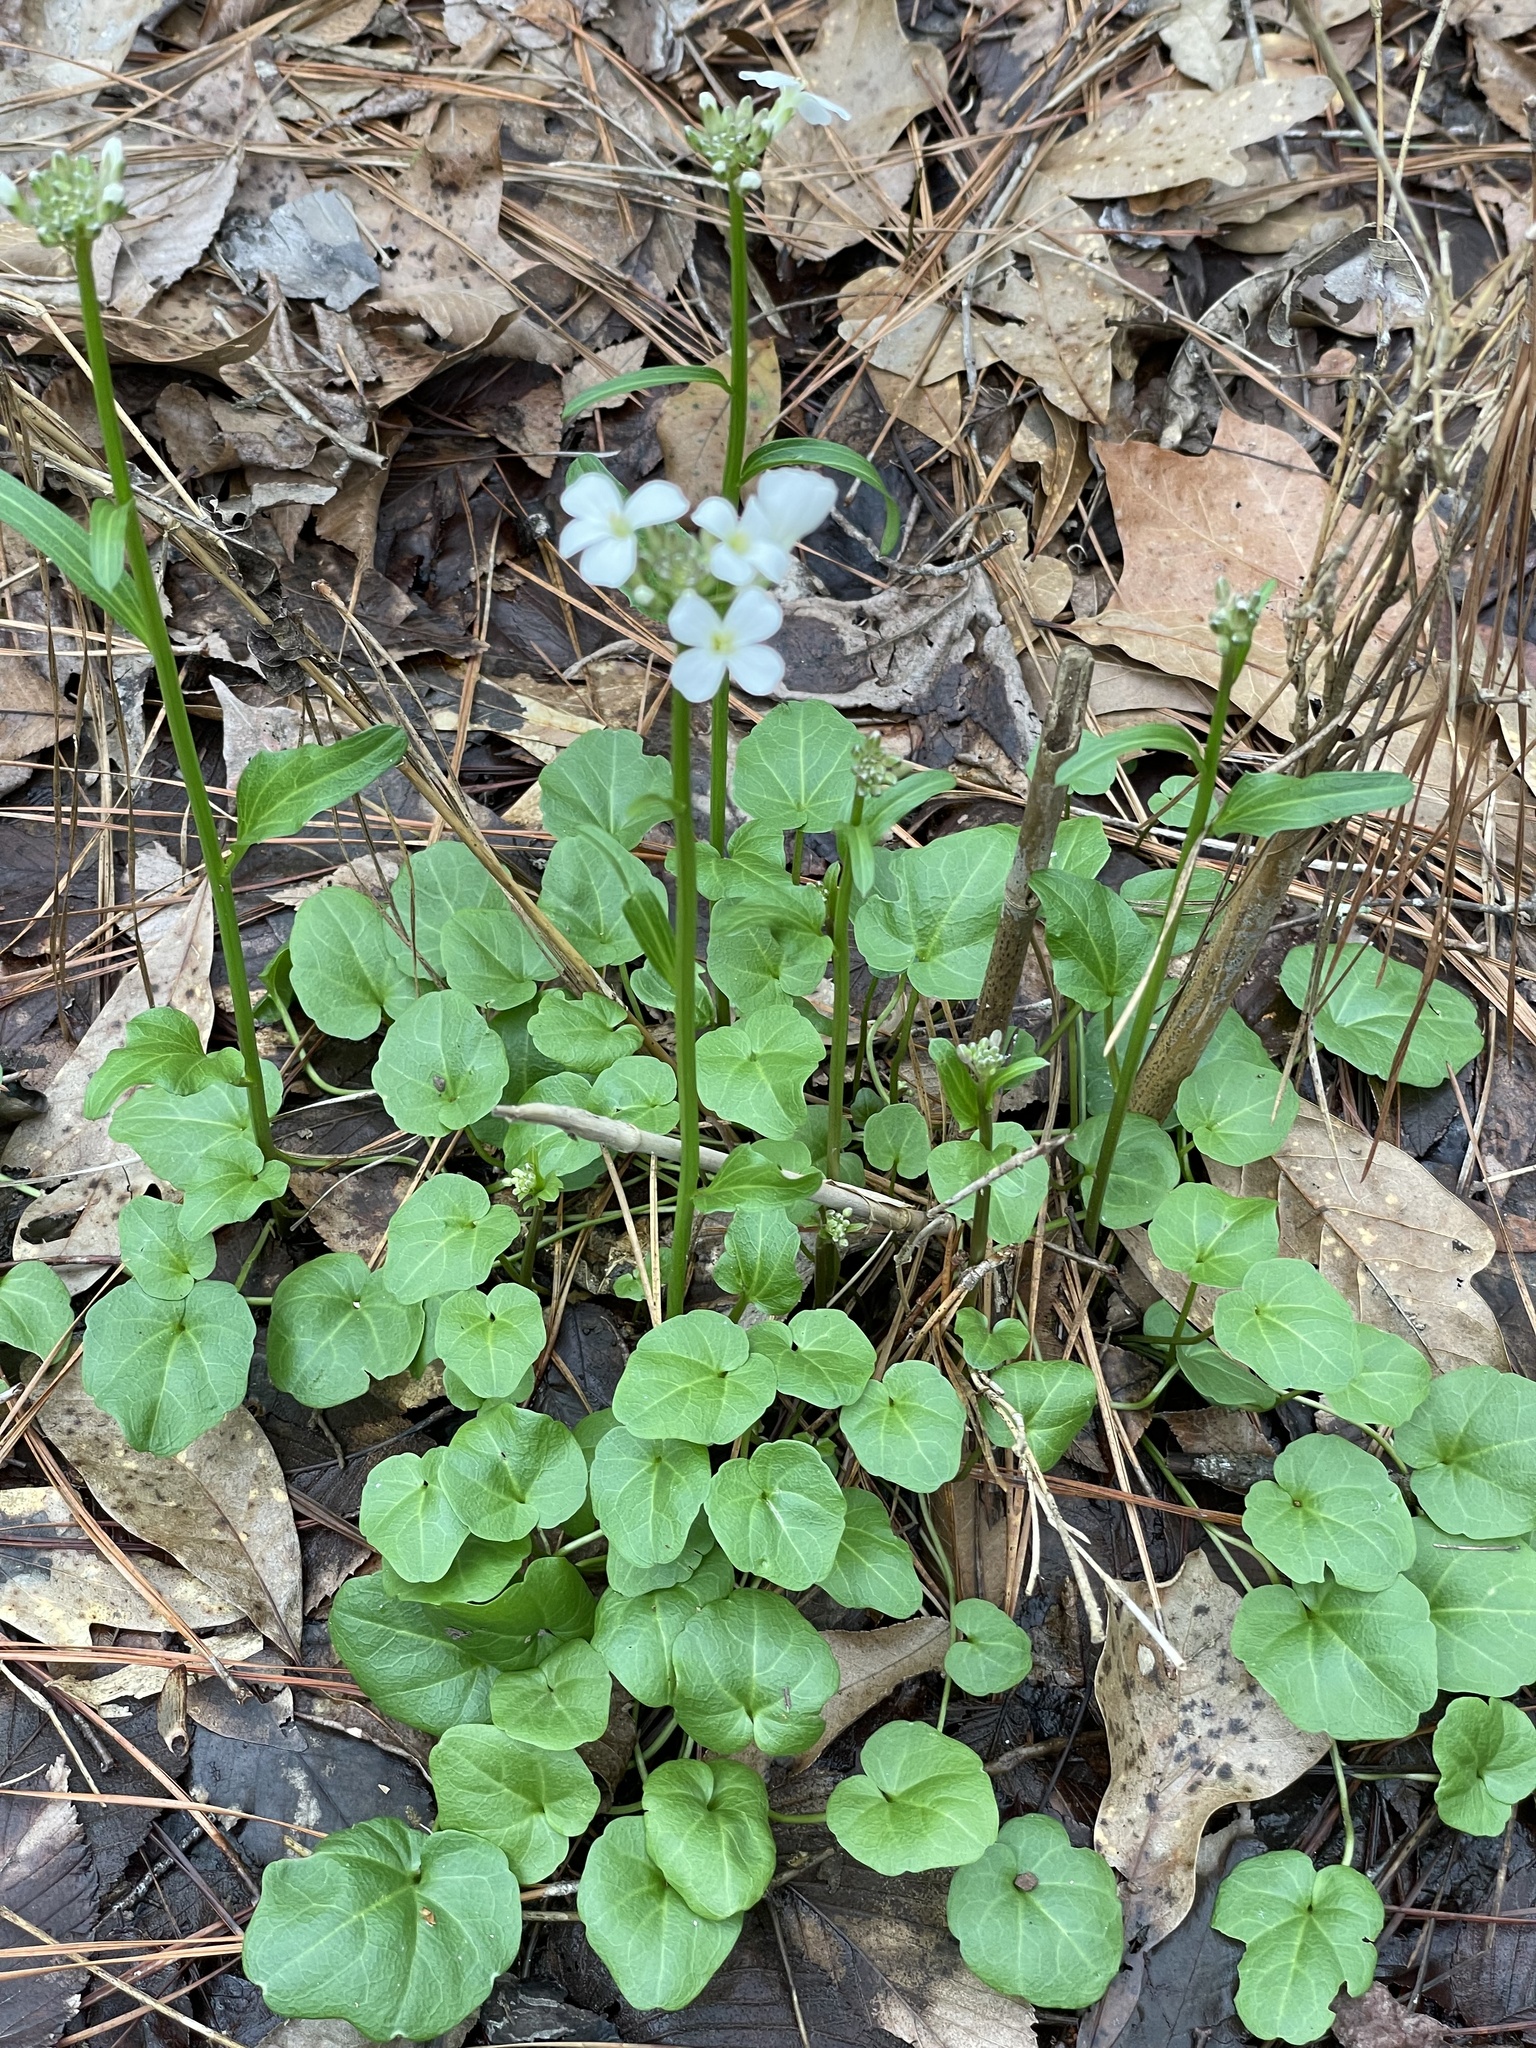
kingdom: Plantae
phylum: Tracheophyta
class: Magnoliopsida
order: Brassicales
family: Brassicaceae
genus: Cardamine
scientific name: Cardamine bulbosa
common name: Spring cress
